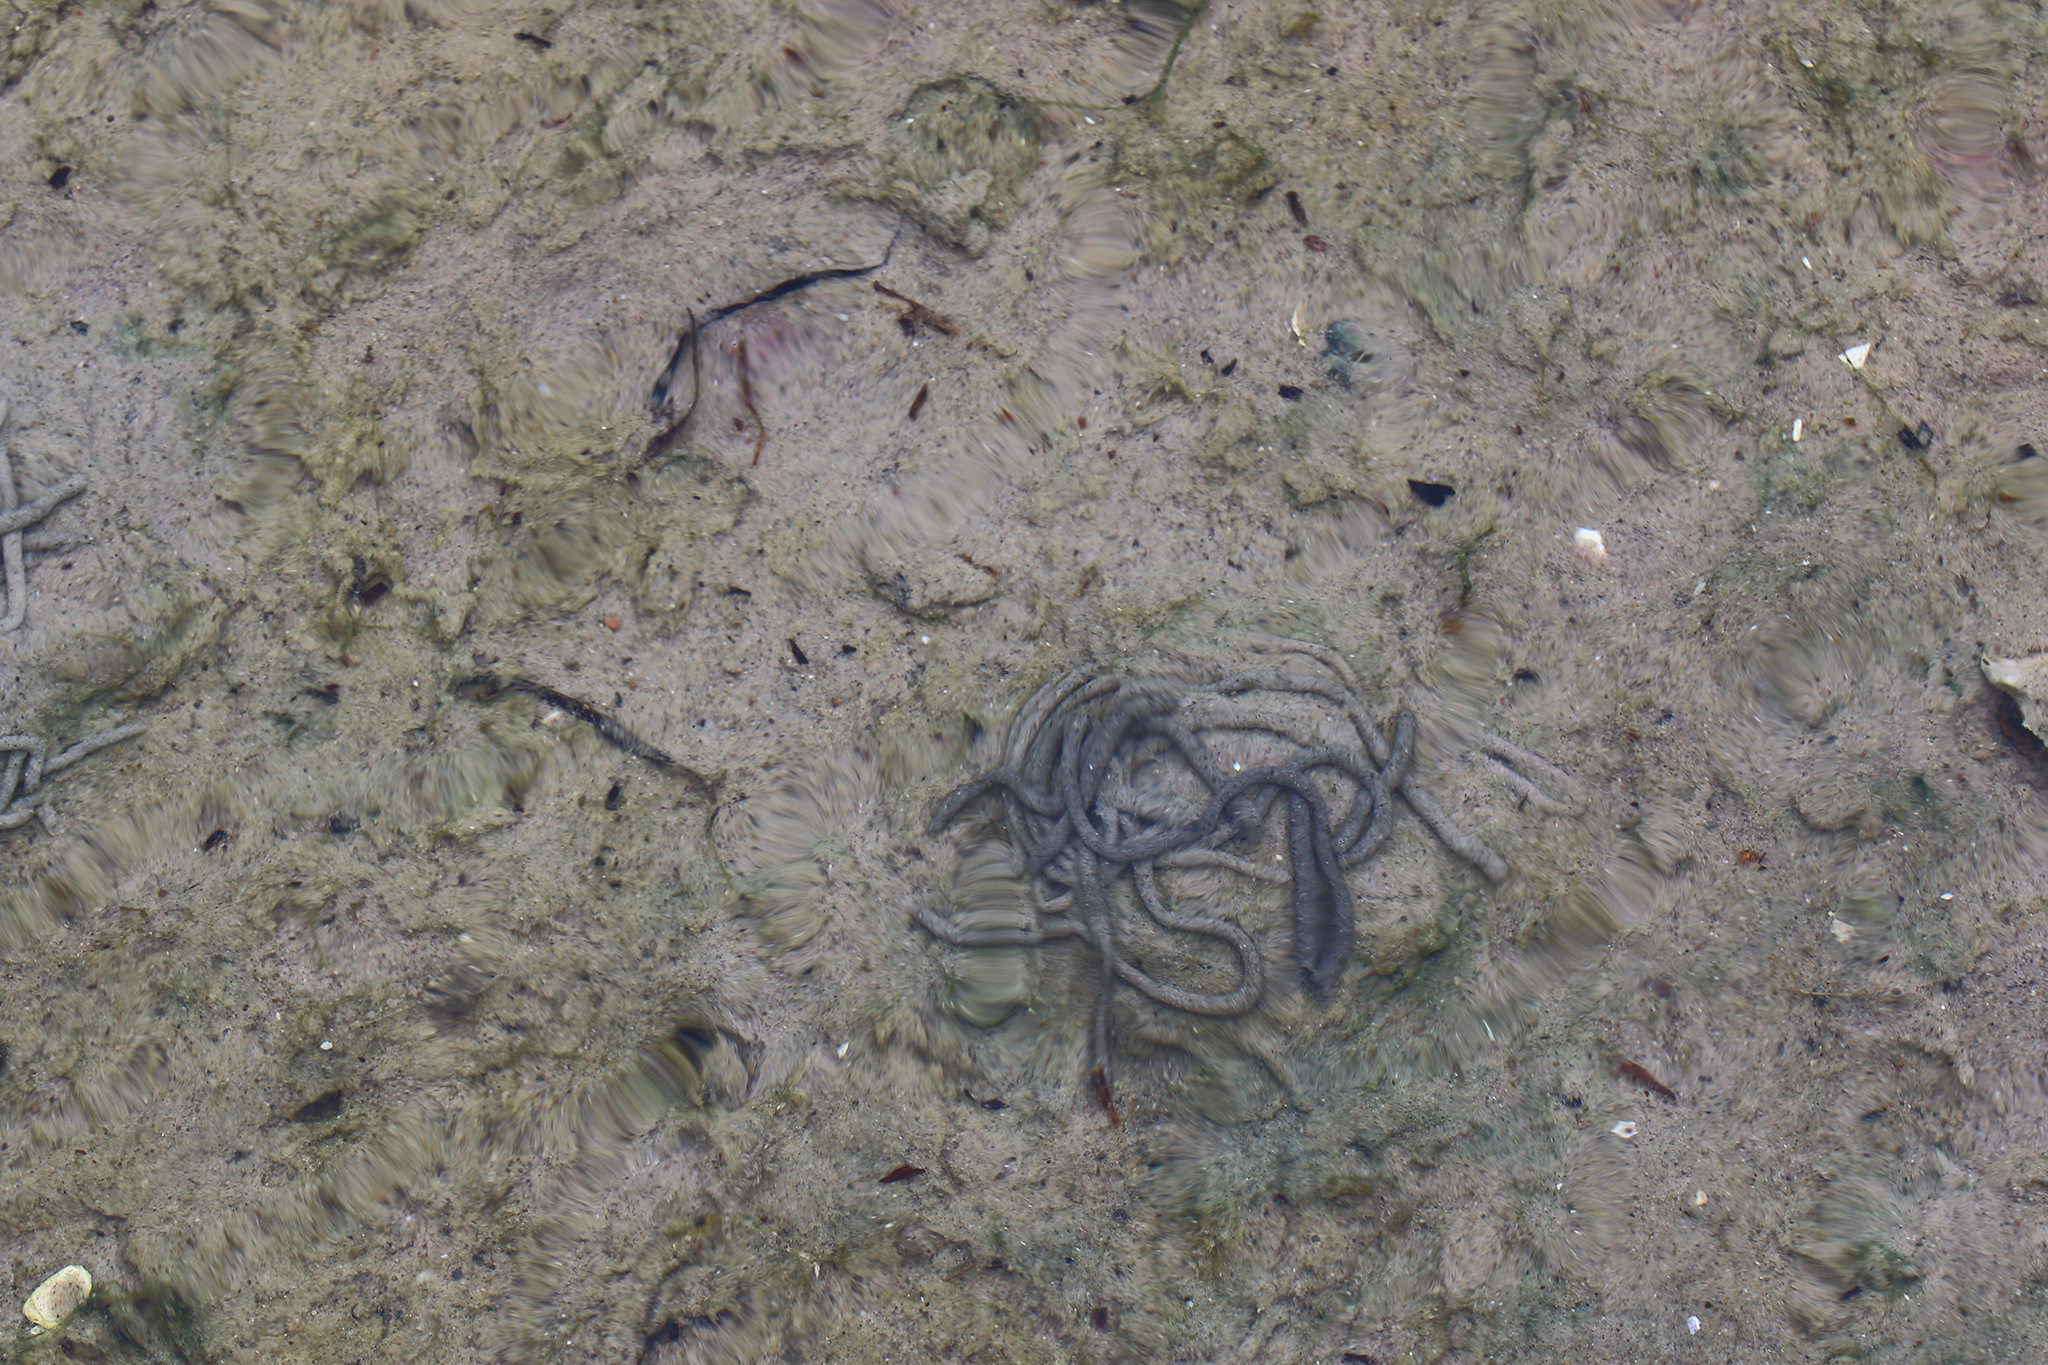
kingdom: Animalia
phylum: Annelida
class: Polychaeta
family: Arenicolidae
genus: Arenicola
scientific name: Arenicola marina
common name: Blow lugworm
